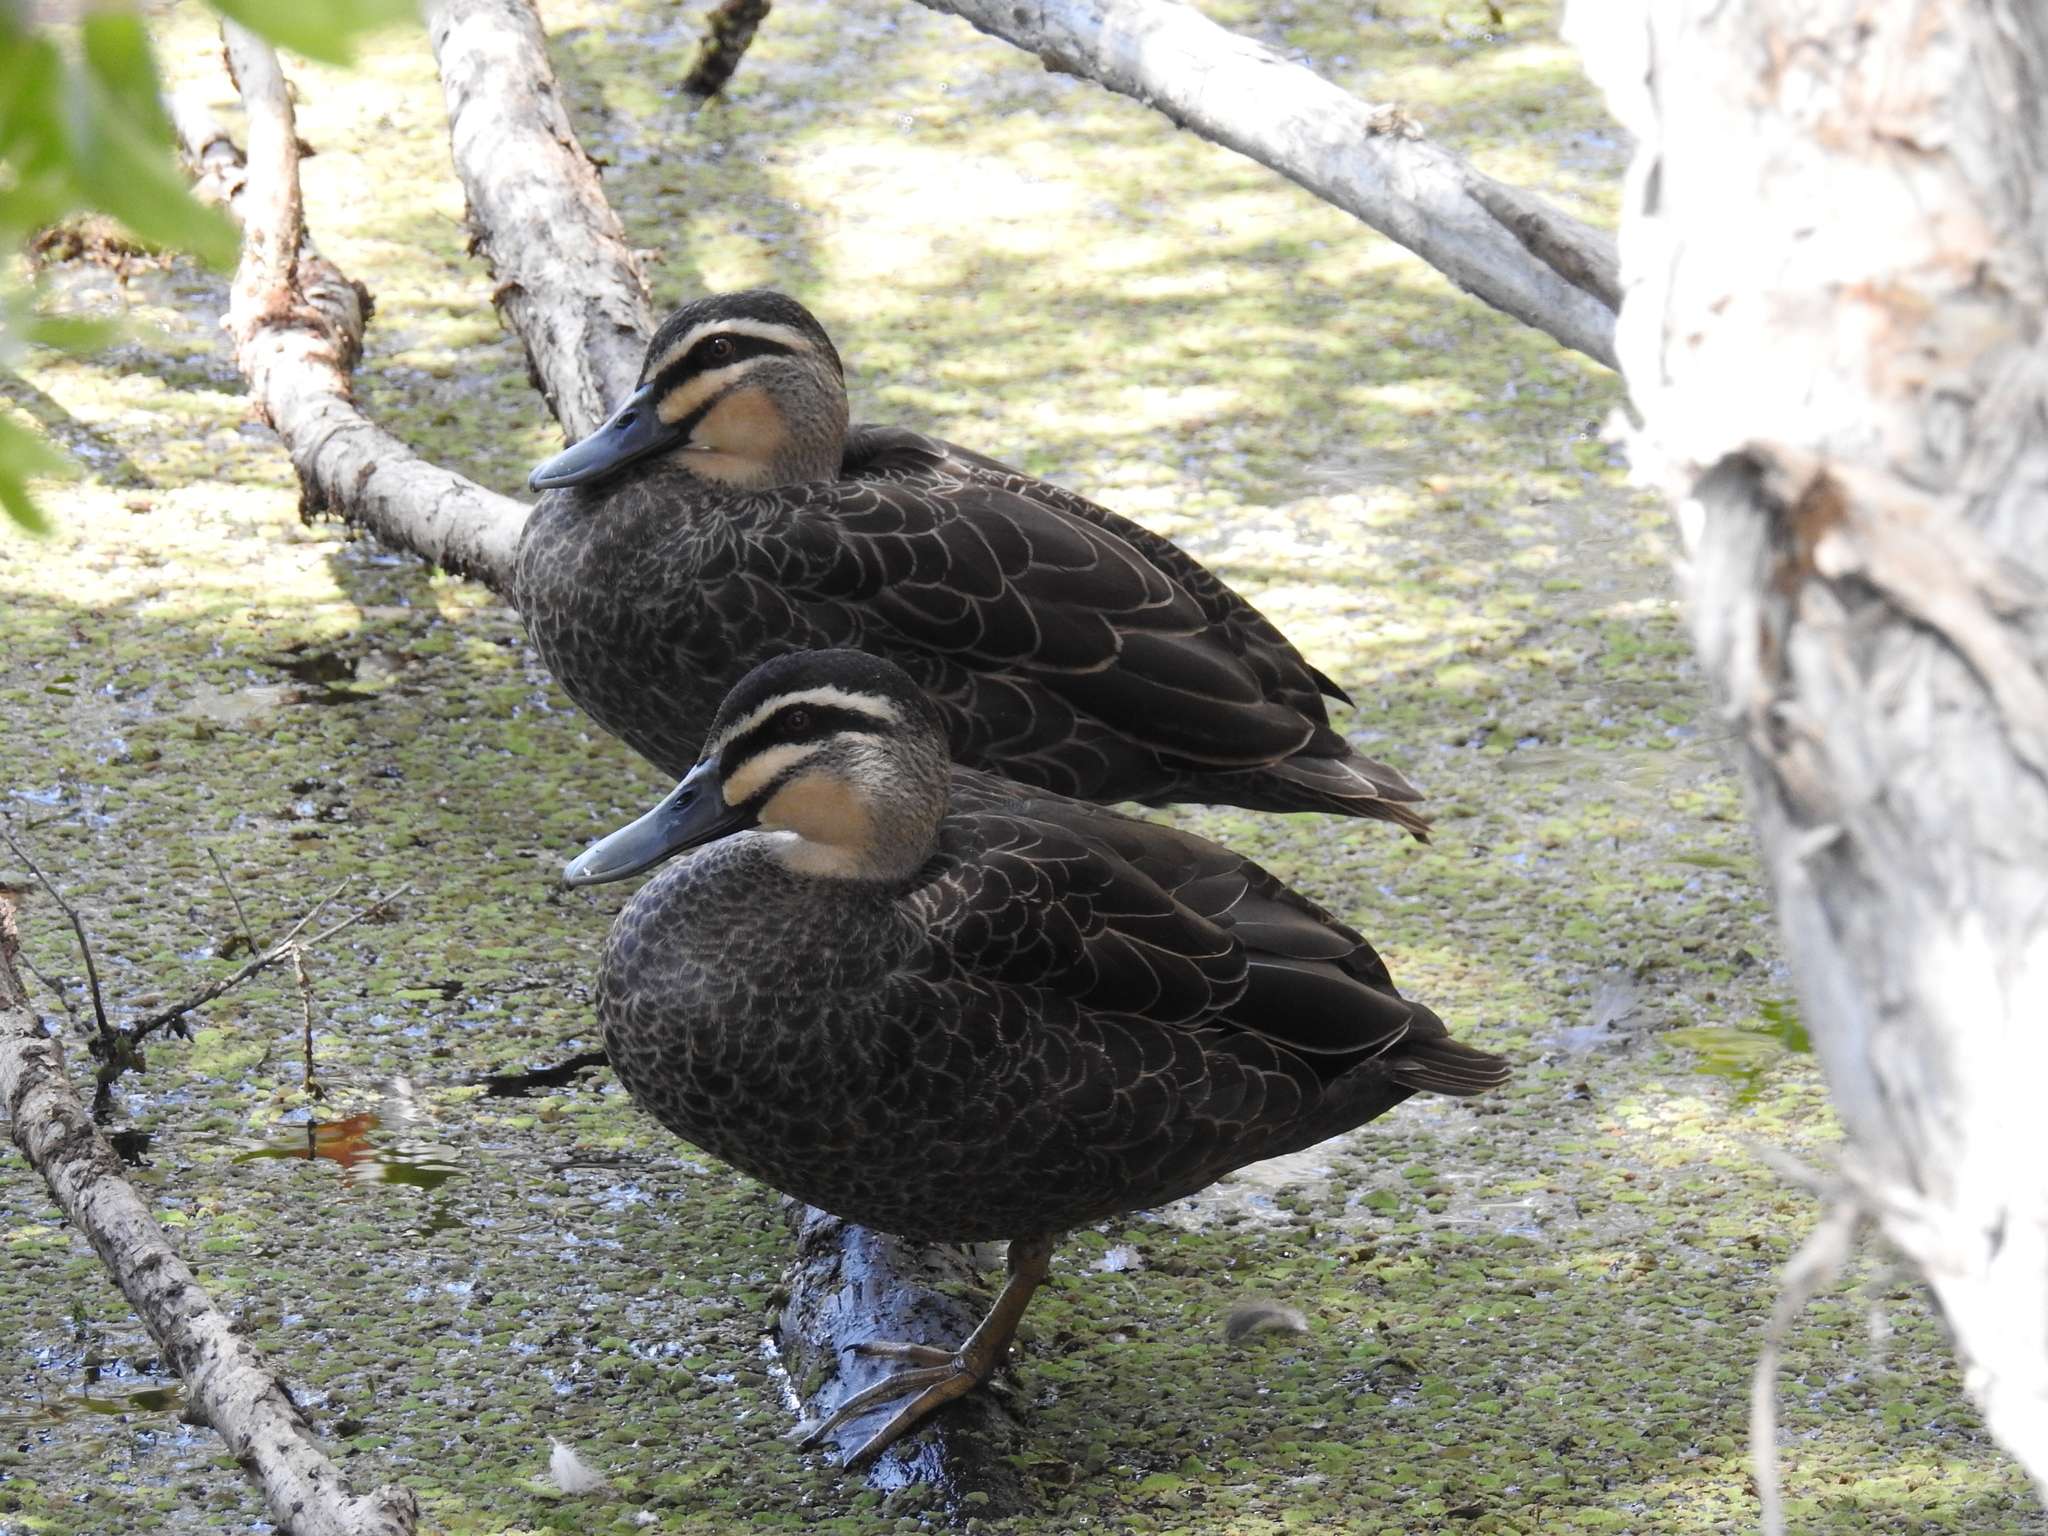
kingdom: Animalia
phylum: Chordata
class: Aves
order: Anseriformes
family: Anatidae
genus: Anas
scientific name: Anas superciliosa
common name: Pacific black duck
